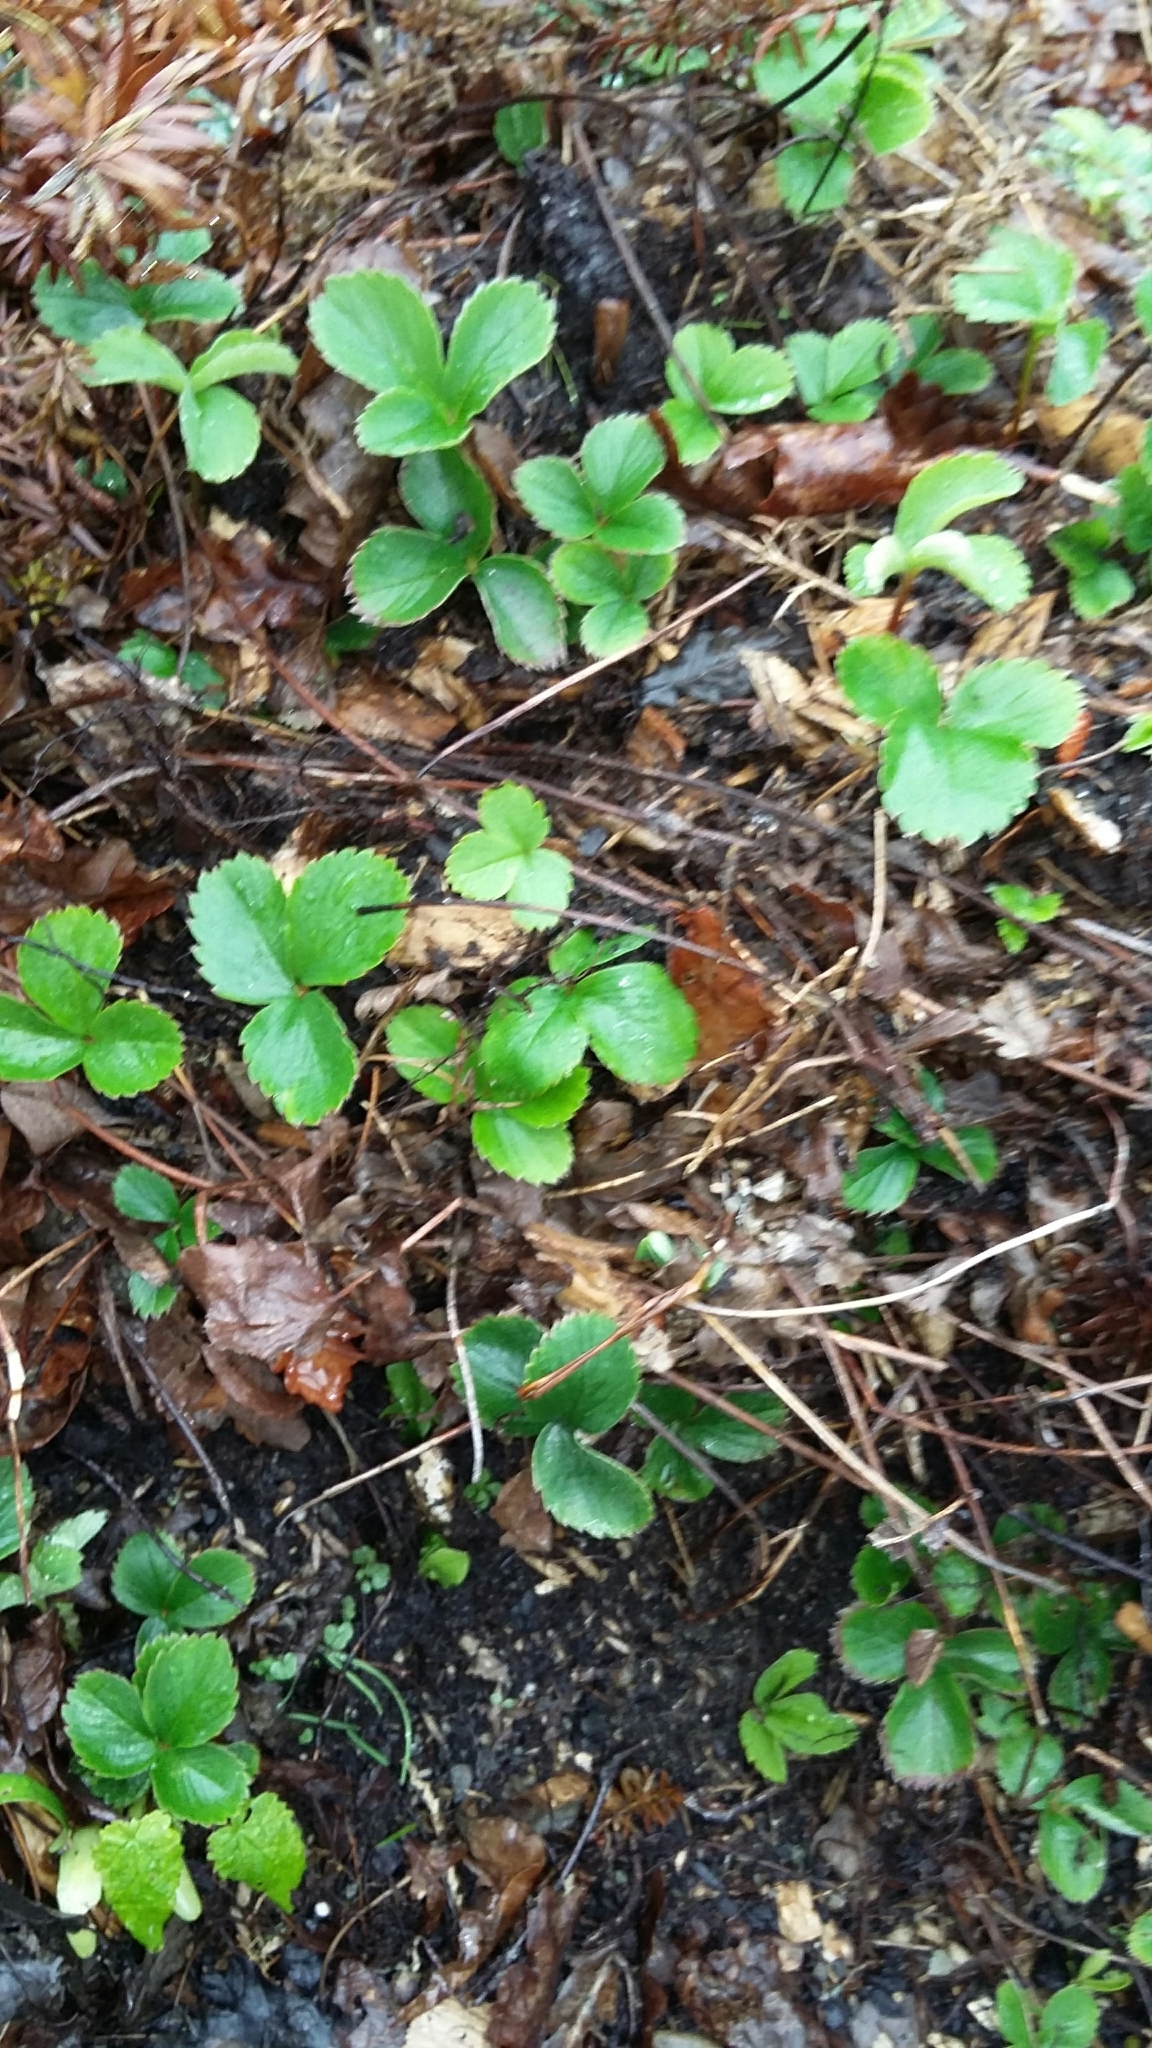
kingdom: Plantae
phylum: Tracheophyta
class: Magnoliopsida
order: Rosales
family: Rosaceae
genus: Fragaria
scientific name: Fragaria ananassa
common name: Garden strawberry
